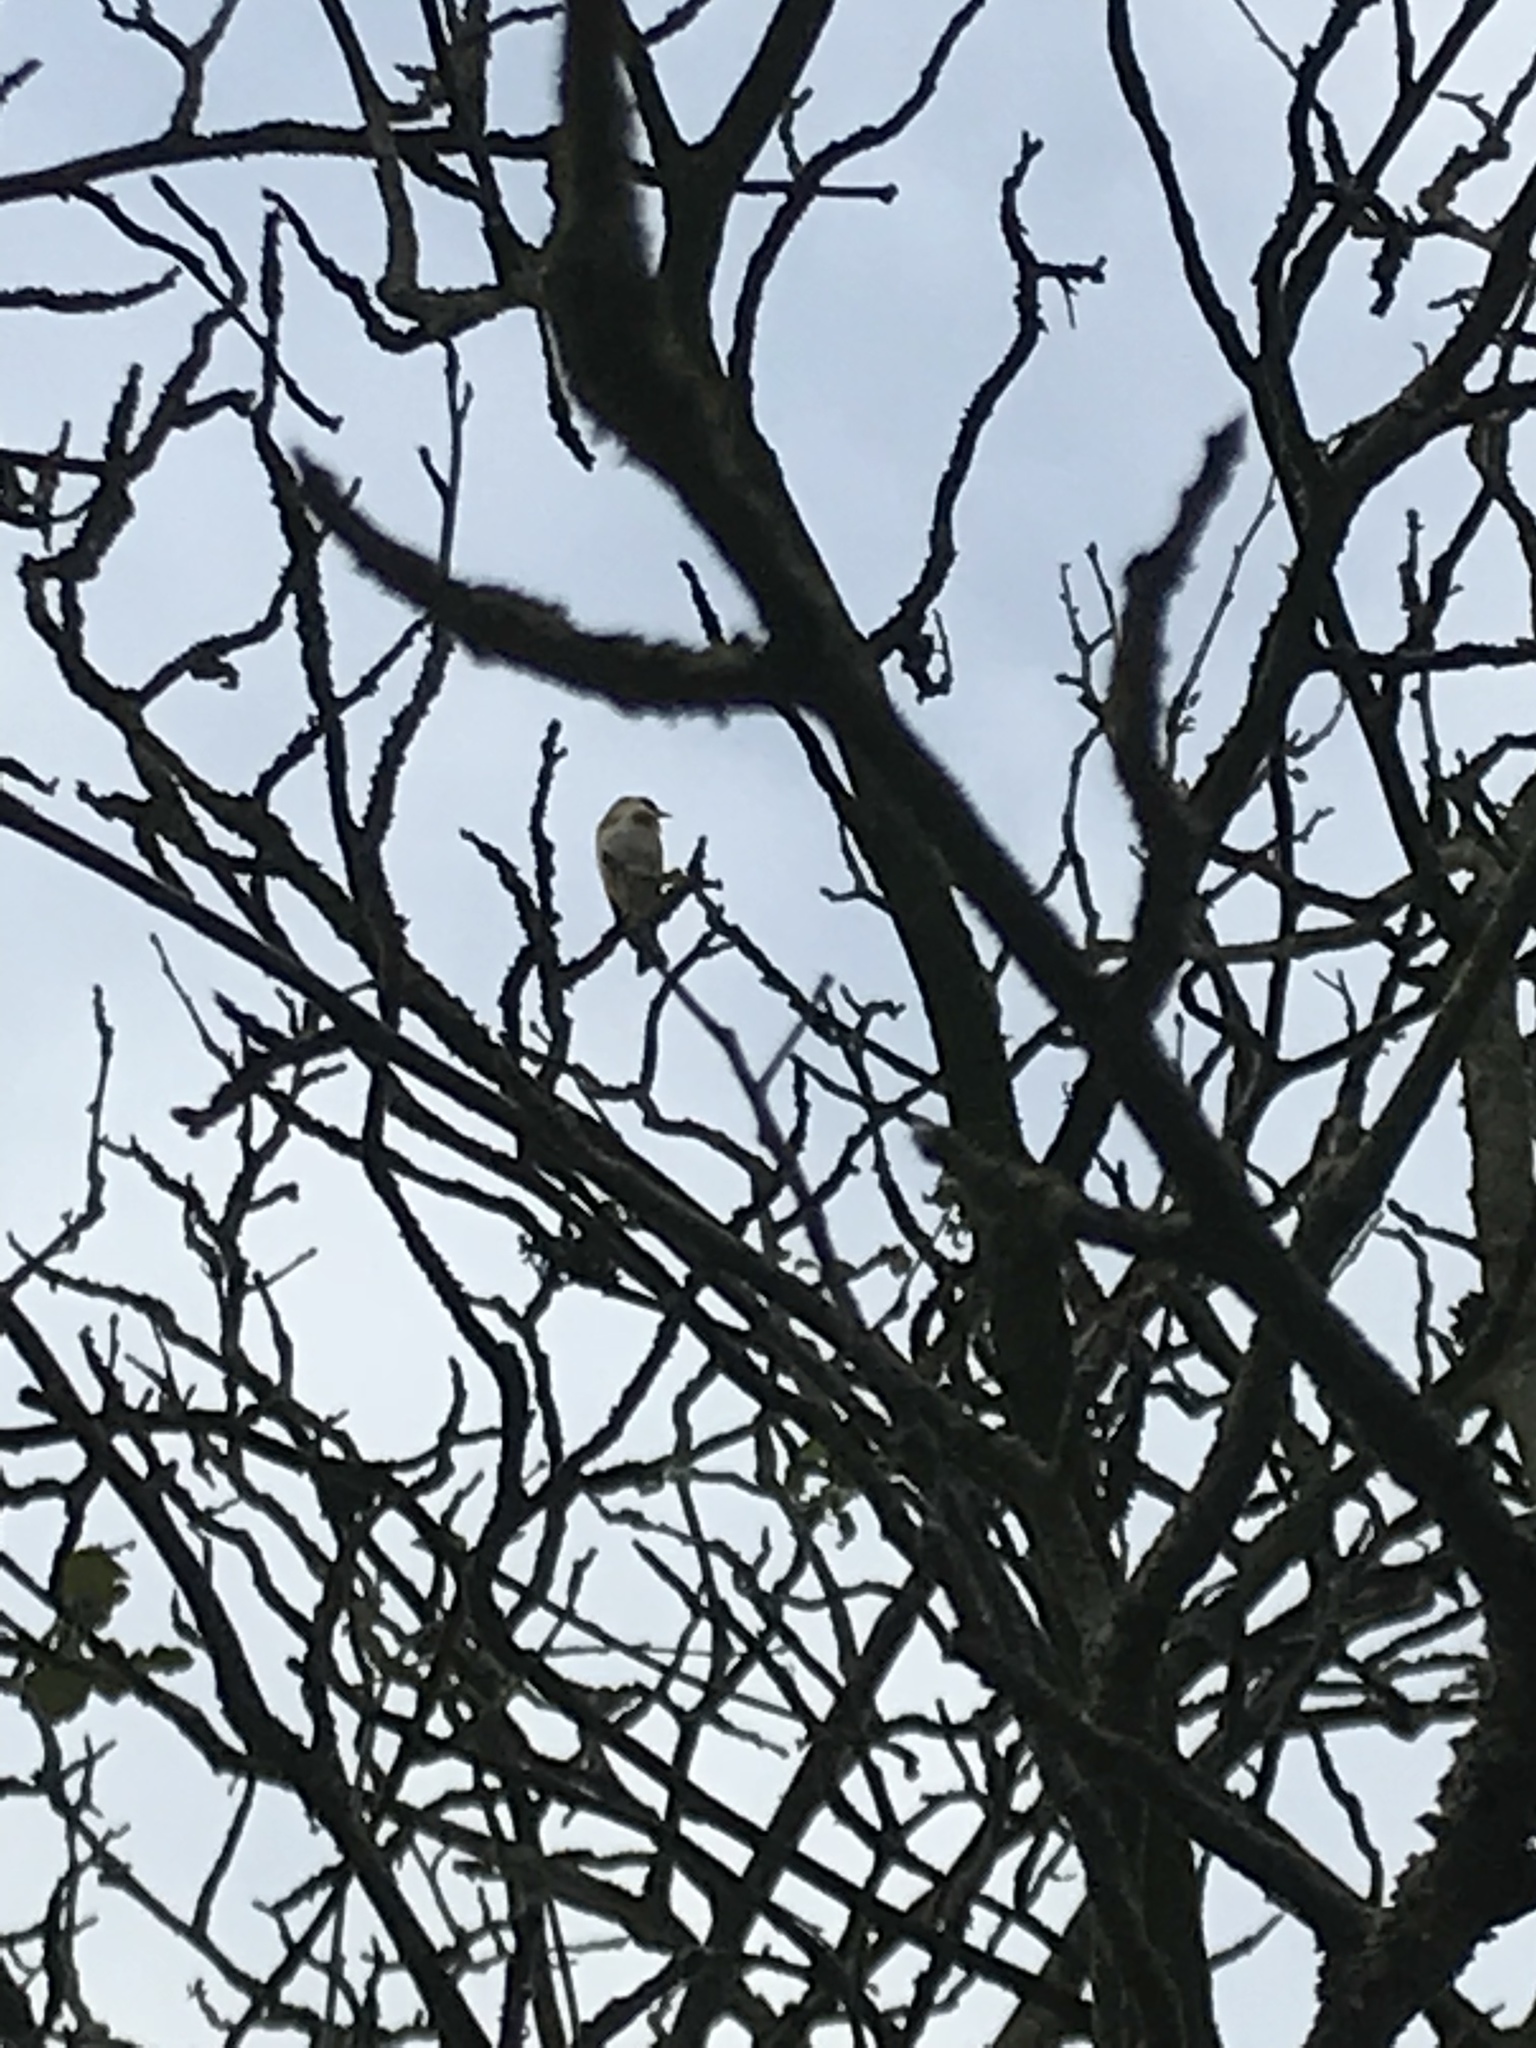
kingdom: Animalia
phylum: Chordata
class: Aves
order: Passeriformes
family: Fringillidae
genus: Carduelis
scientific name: Carduelis carduelis
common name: European goldfinch
